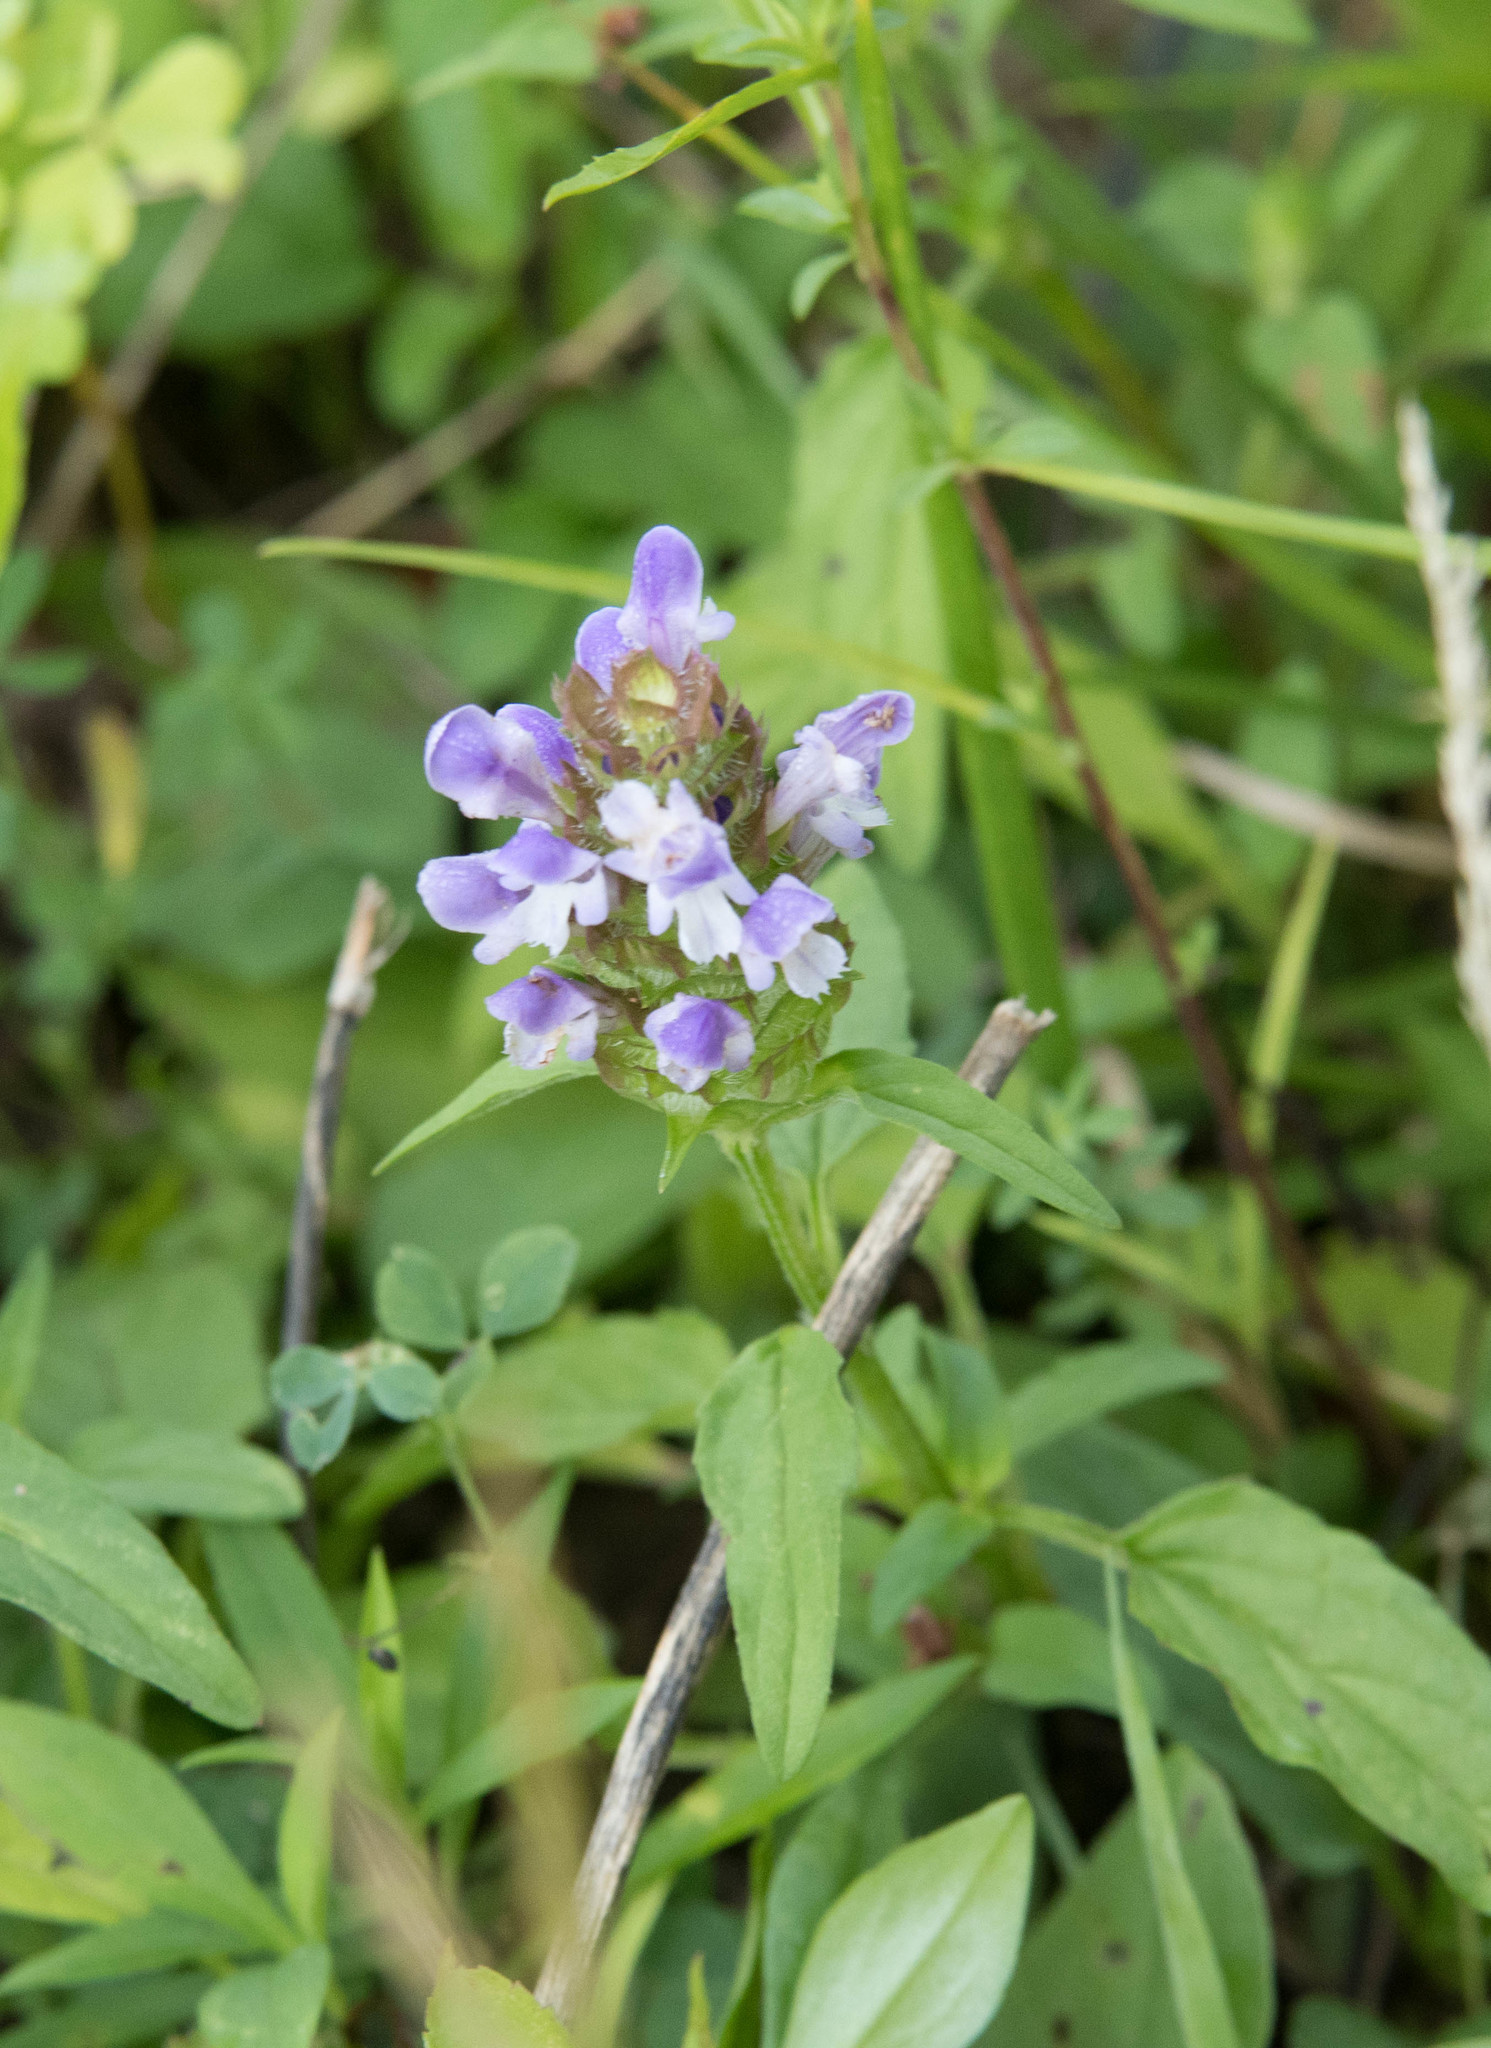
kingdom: Plantae
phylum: Tracheophyta
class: Magnoliopsida
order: Lamiales
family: Lamiaceae
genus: Prunella
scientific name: Prunella vulgaris
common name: Heal-all
